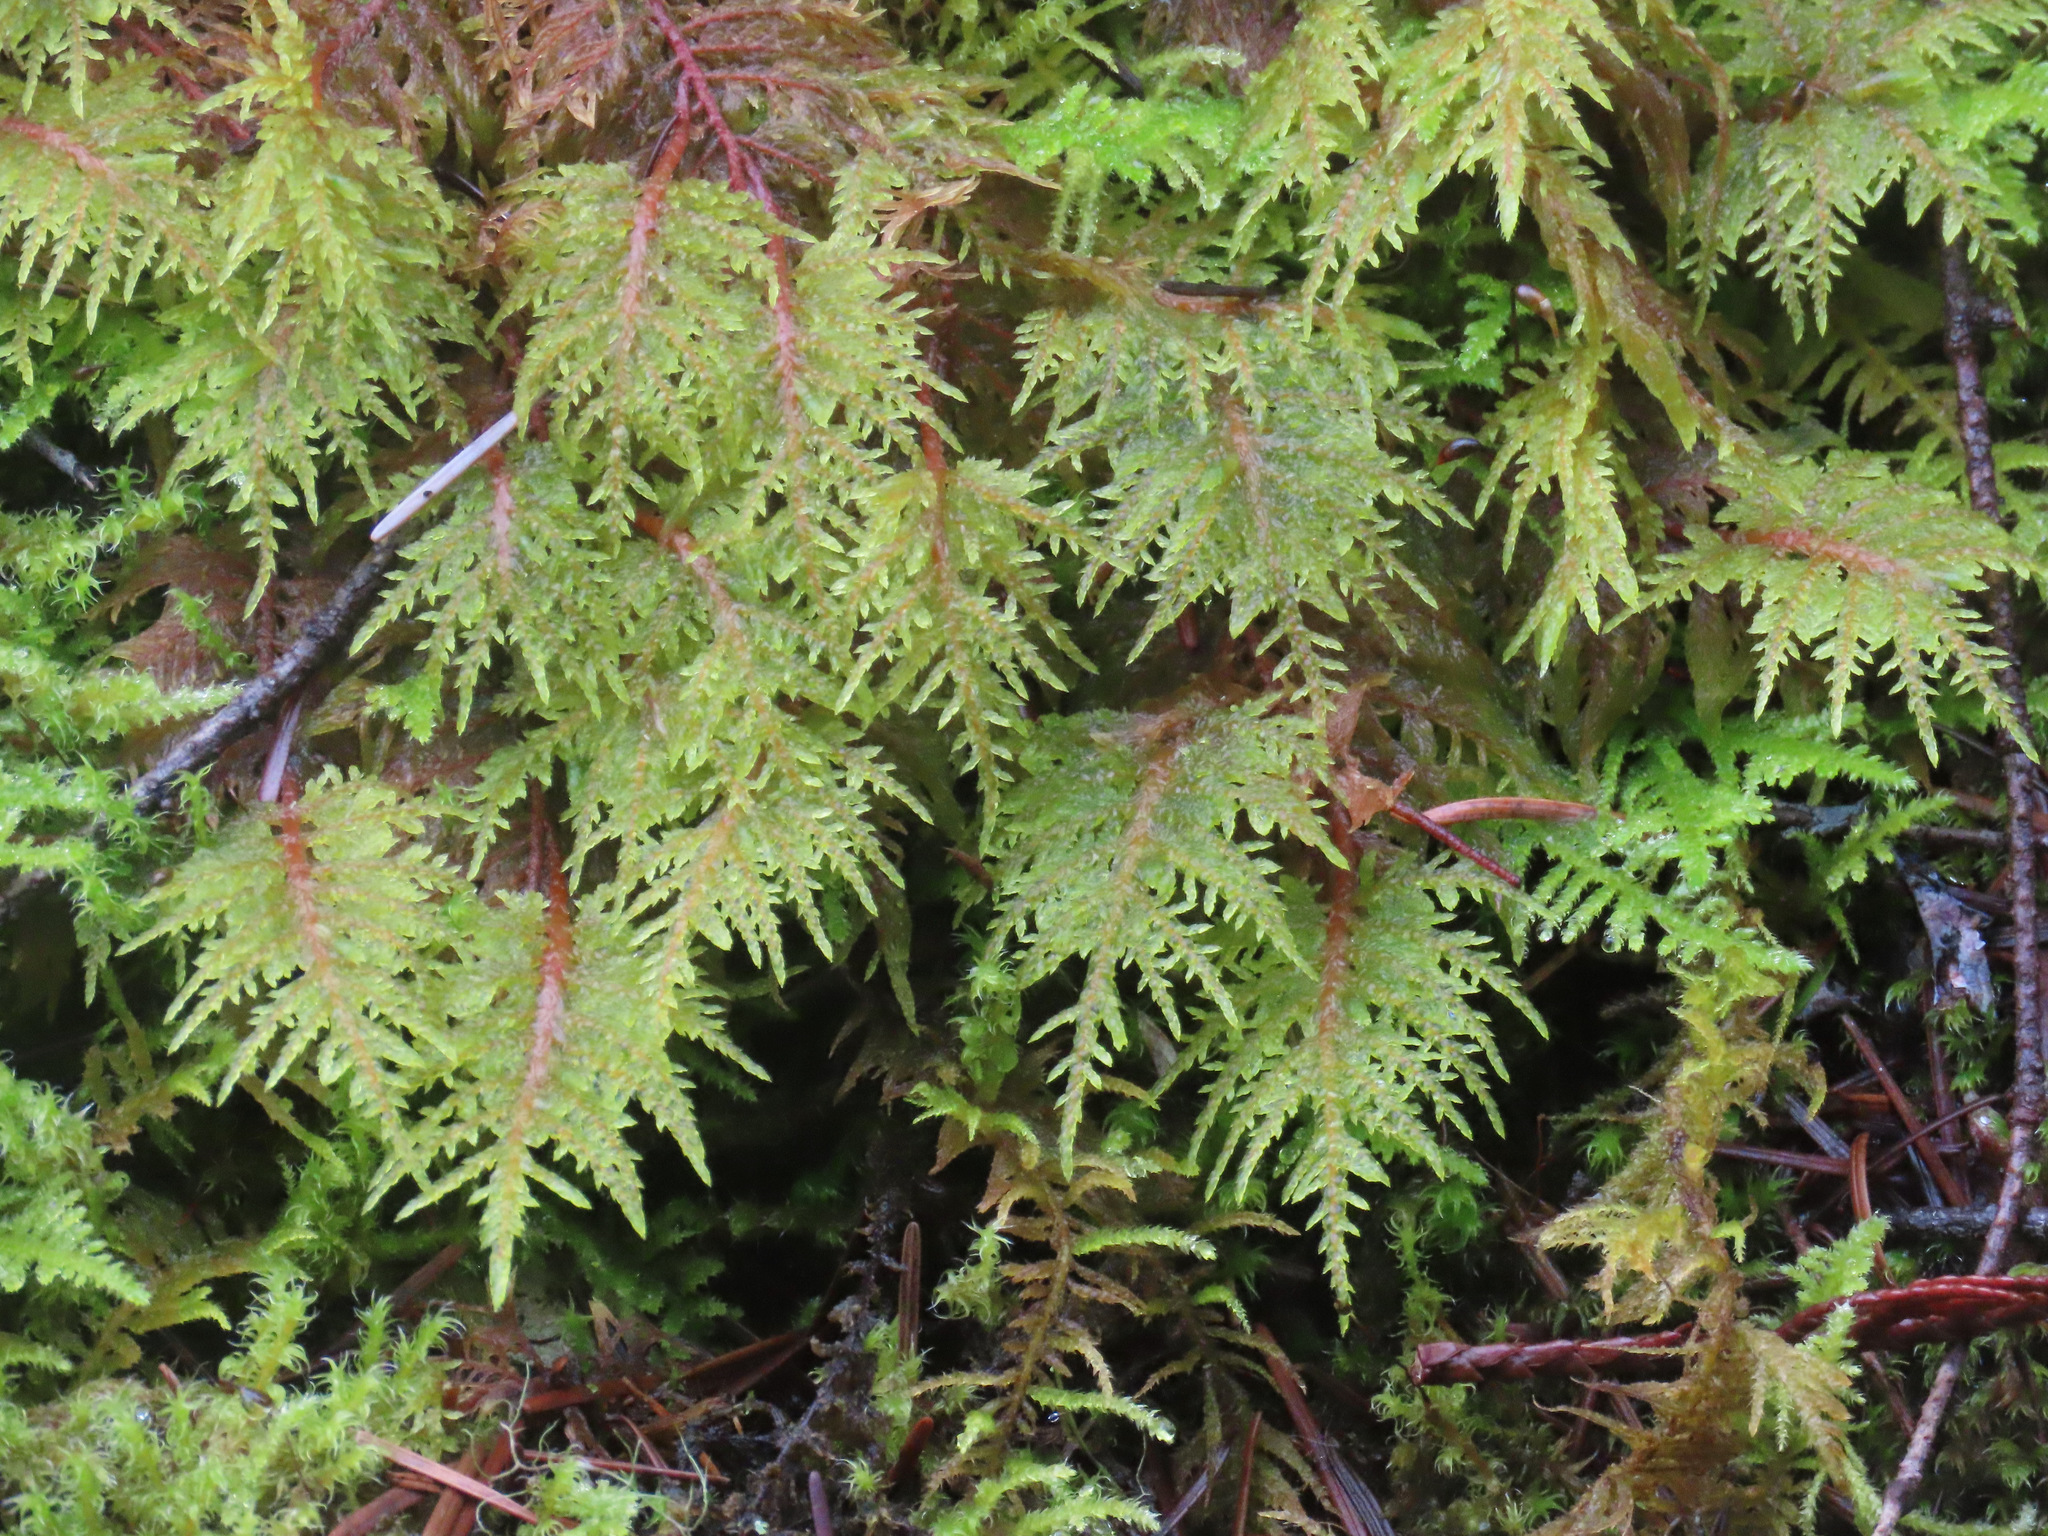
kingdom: Plantae
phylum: Bryophyta
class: Bryopsida
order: Hypnales
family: Hylocomiaceae
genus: Hylocomium
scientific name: Hylocomium splendens
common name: Stairstep moss
